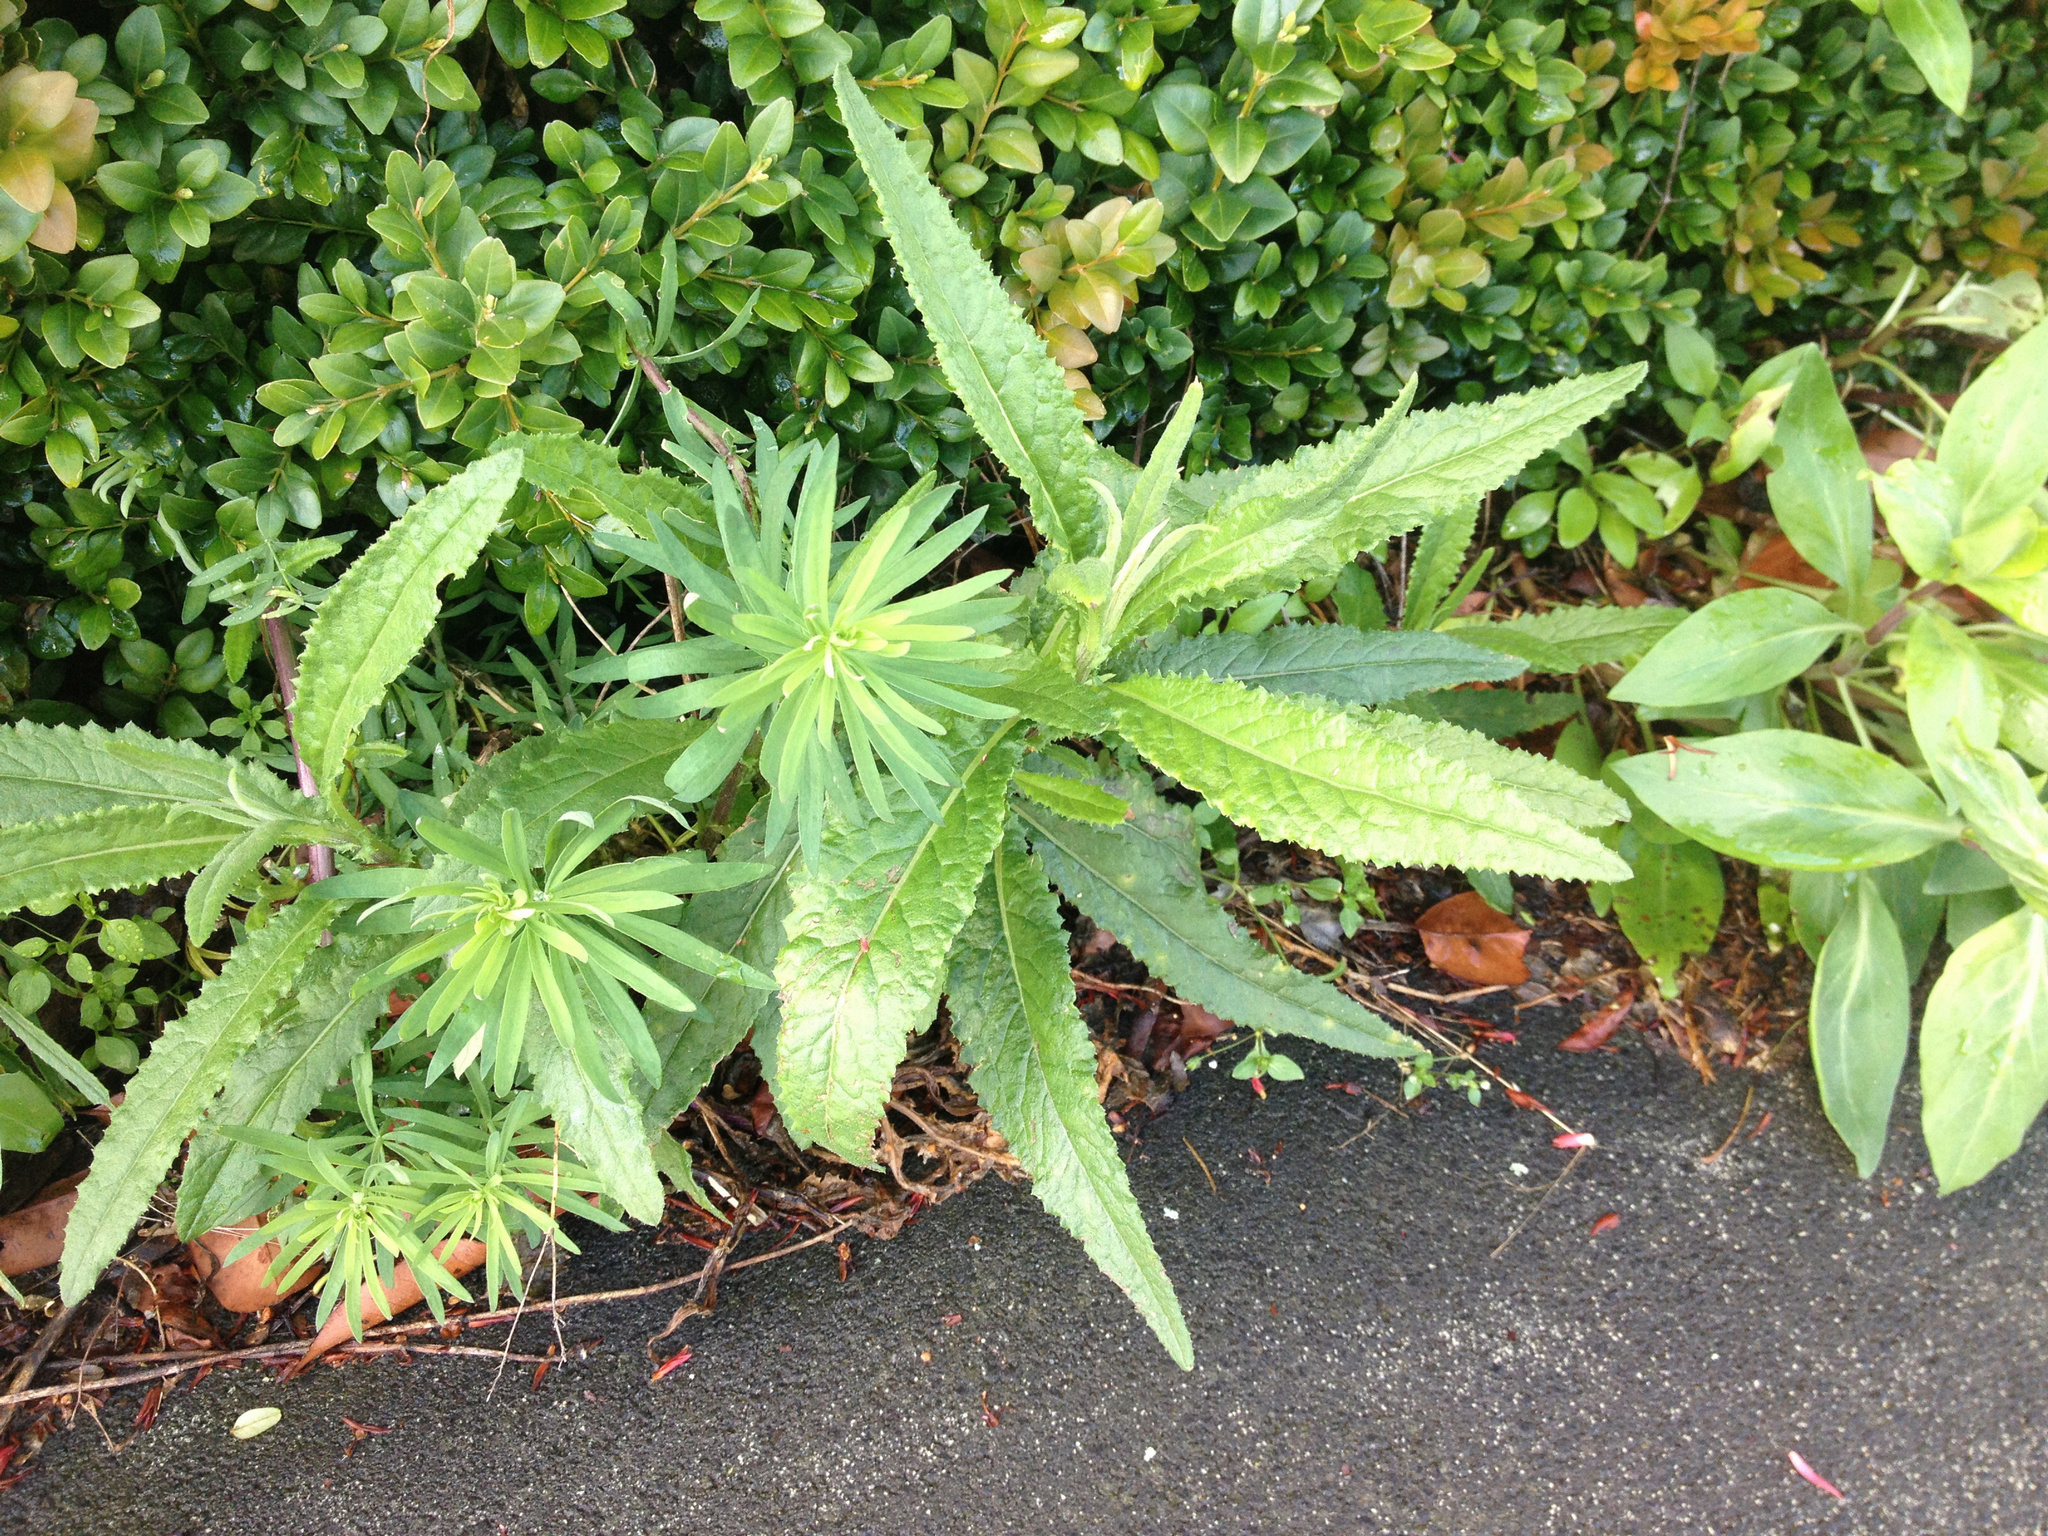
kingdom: Plantae
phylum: Tracheophyta
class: Magnoliopsida
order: Asterales
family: Asteraceae
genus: Senecio
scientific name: Senecio minimus
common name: Toothed fireweed
